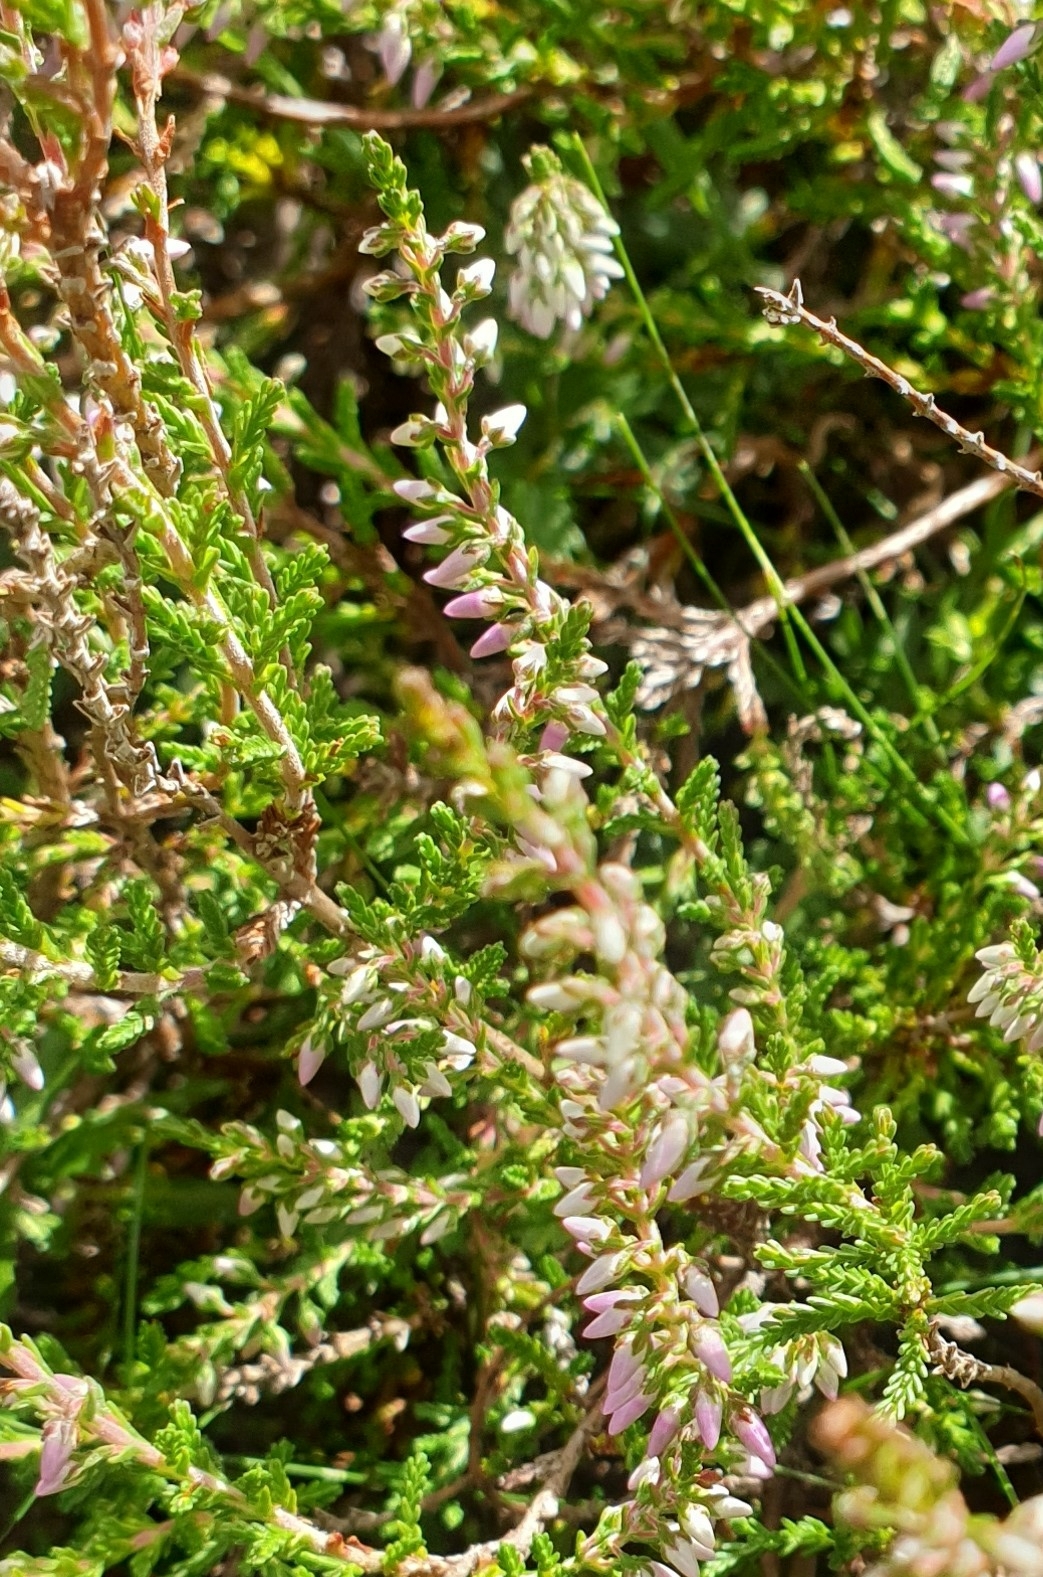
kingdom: Plantae
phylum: Tracheophyta
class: Magnoliopsida
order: Ericales
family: Ericaceae
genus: Calluna
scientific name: Calluna vulgaris
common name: Heather
